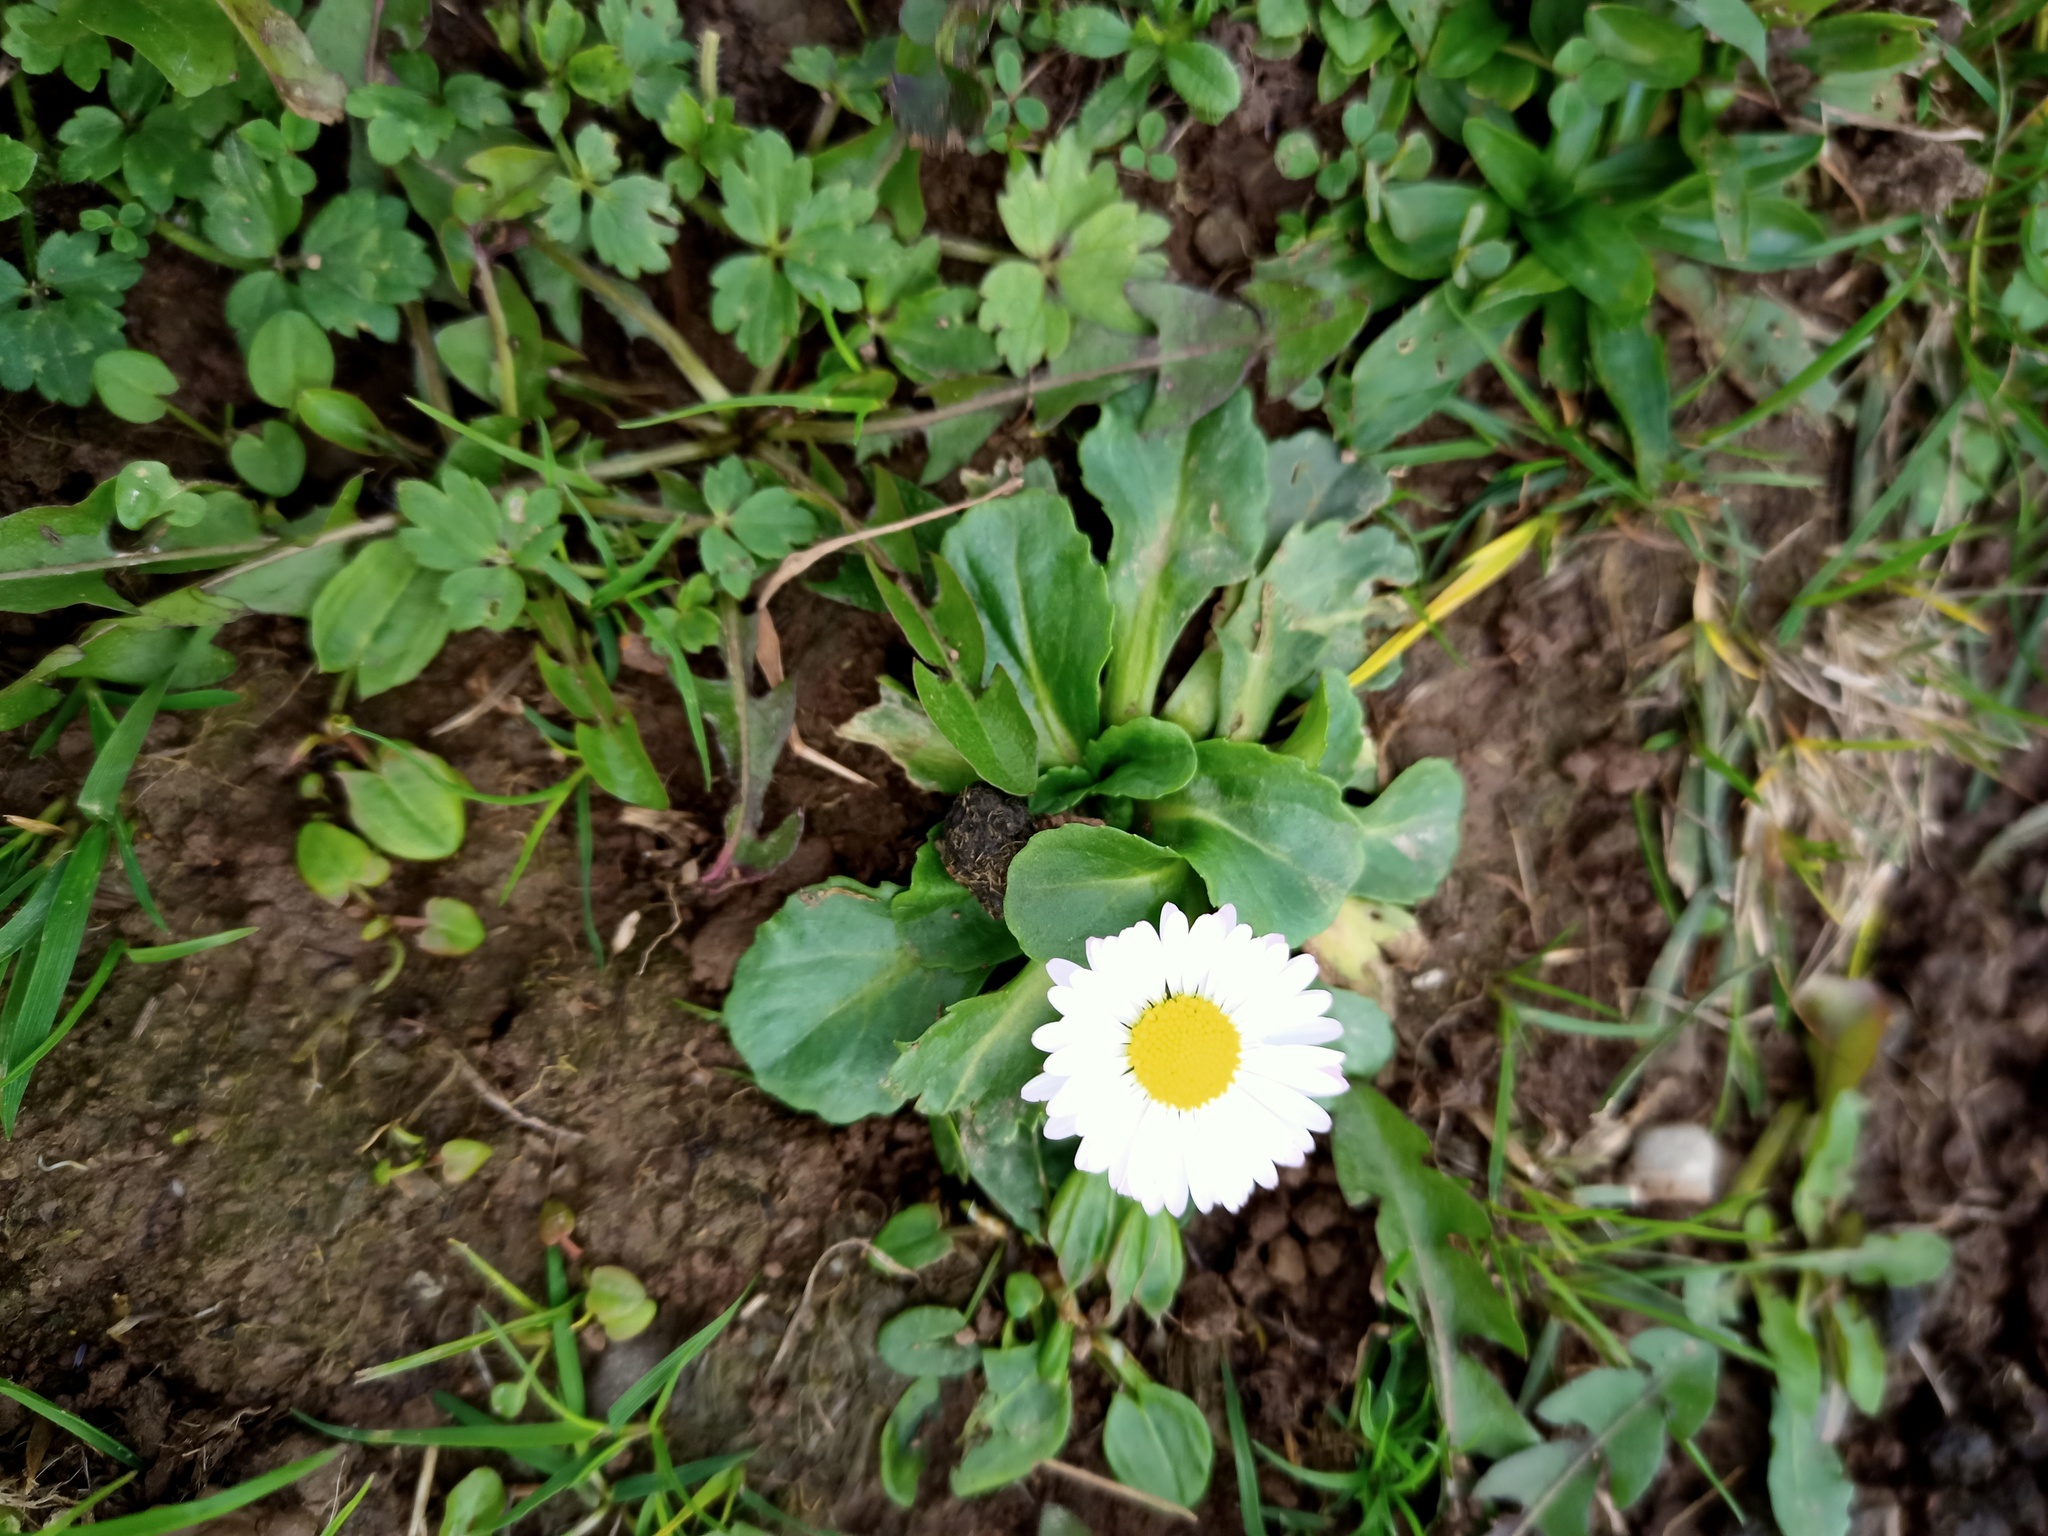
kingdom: Plantae
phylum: Tracheophyta
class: Magnoliopsida
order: Asterales
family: Asteraceae
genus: Bellis
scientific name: Bellis perennis
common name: Lawndaisy
